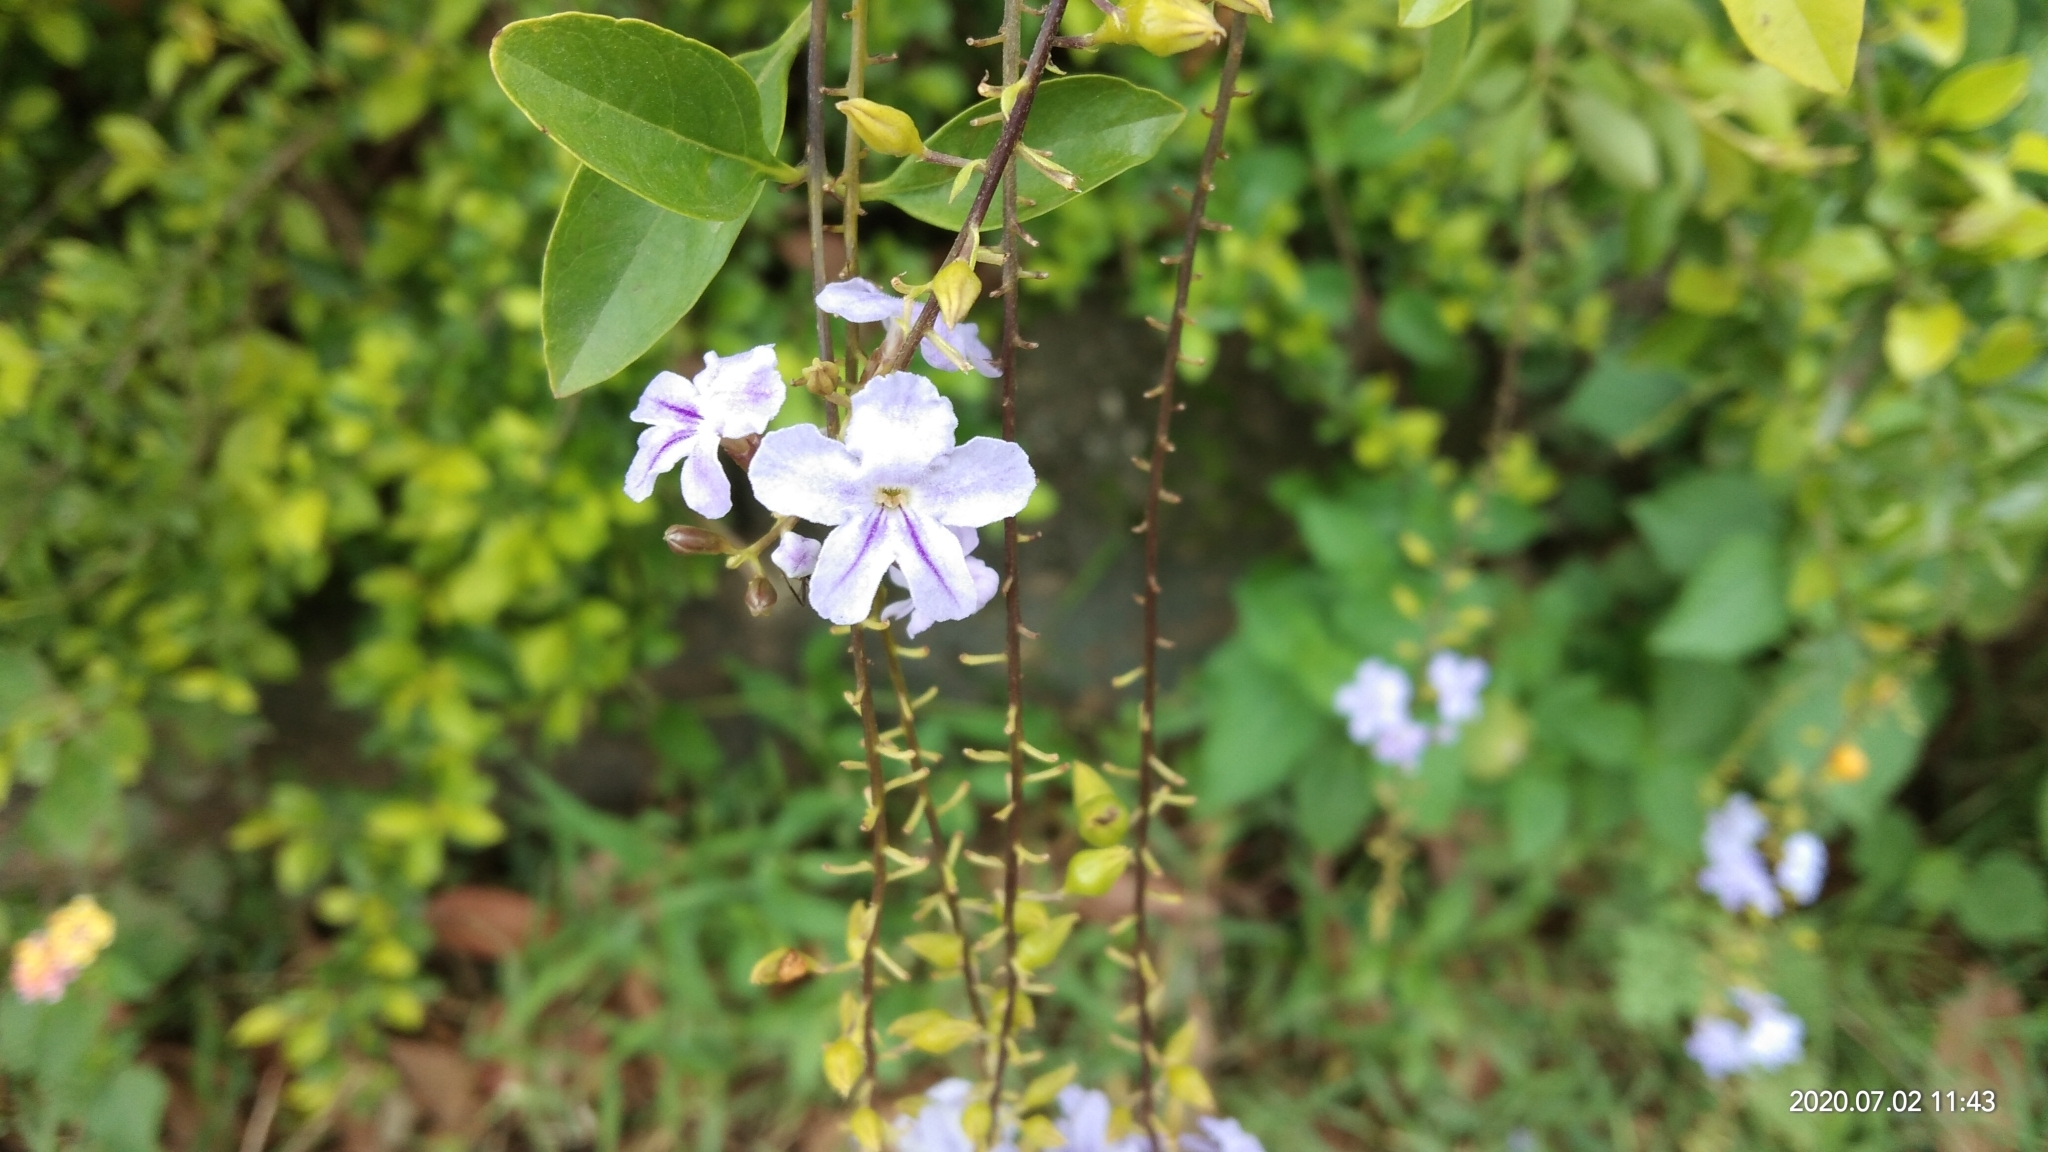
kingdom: Plantae
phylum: Tracheophyta
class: Magnoliopsida
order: Lamiales
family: Verbenaceae
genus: Duranta
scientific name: Duranta erecta
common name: Golden dewdrops
